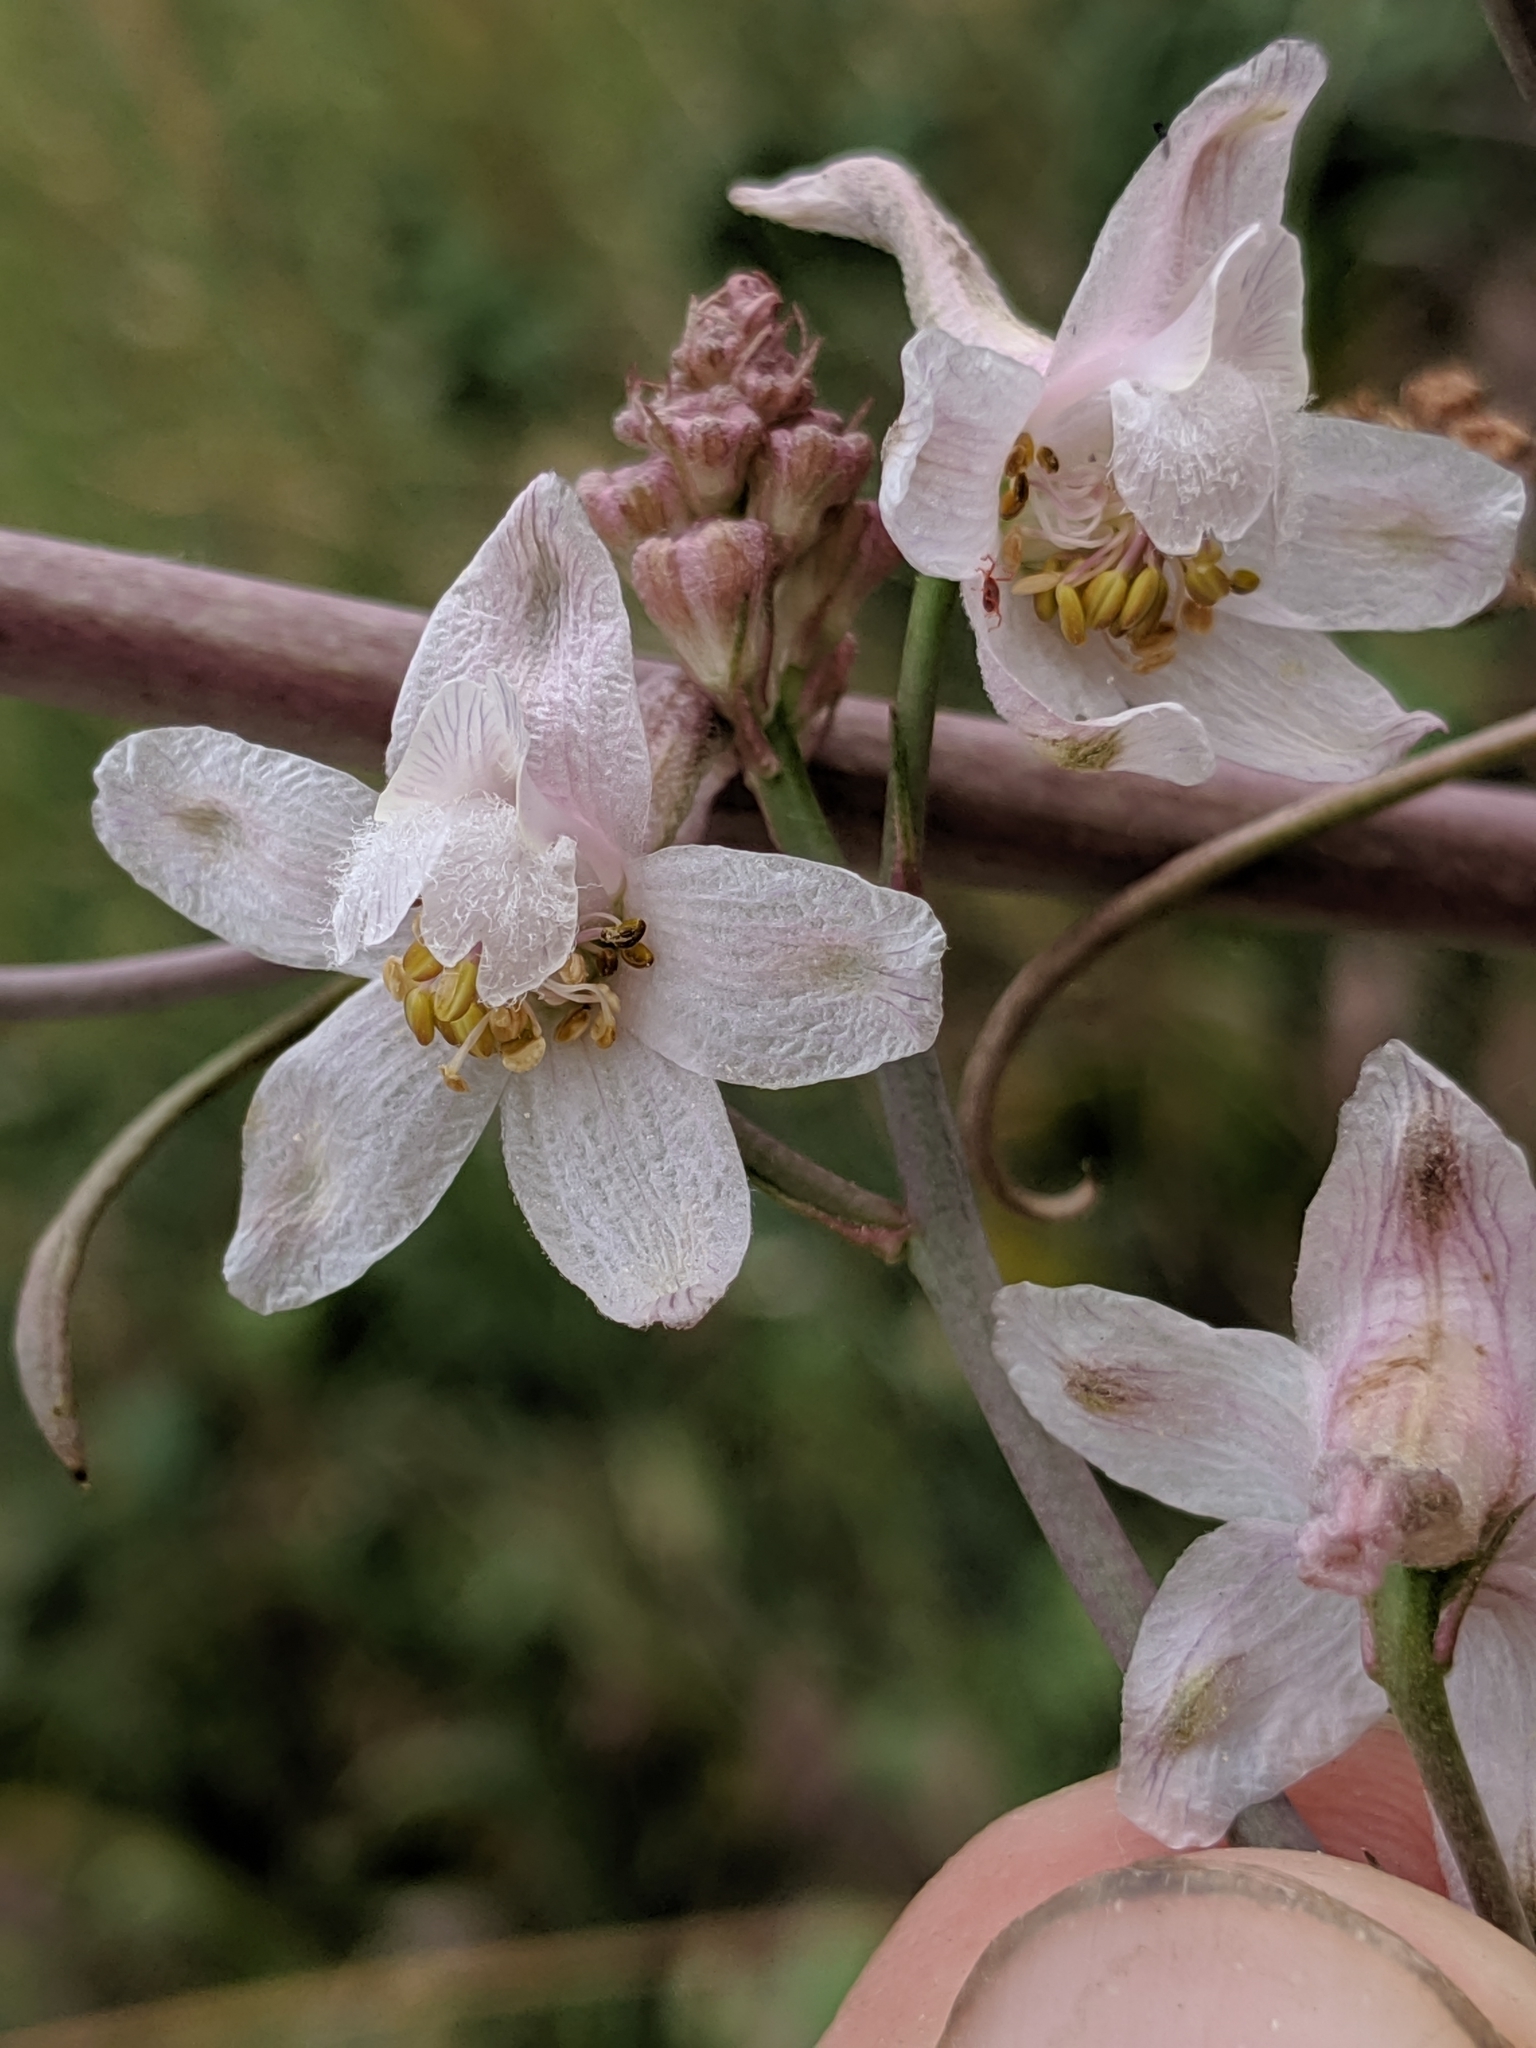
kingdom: Plantae
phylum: Tracheophyta
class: Magnoliopsida
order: Ranunculales
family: Ranunculaceae
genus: Delphinium
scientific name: Delphinium gypsophilum
